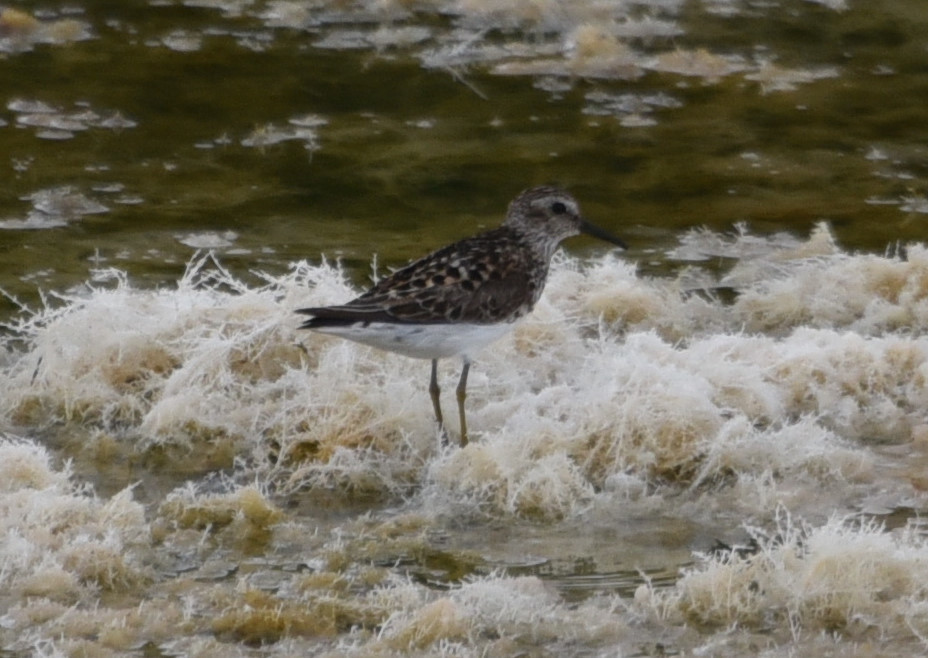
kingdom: Animalia
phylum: Chordata
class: Aves
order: Charadriiformes
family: Scolopacidae
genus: Calidris
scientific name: Calidris minutilla
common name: Least sandpiper
